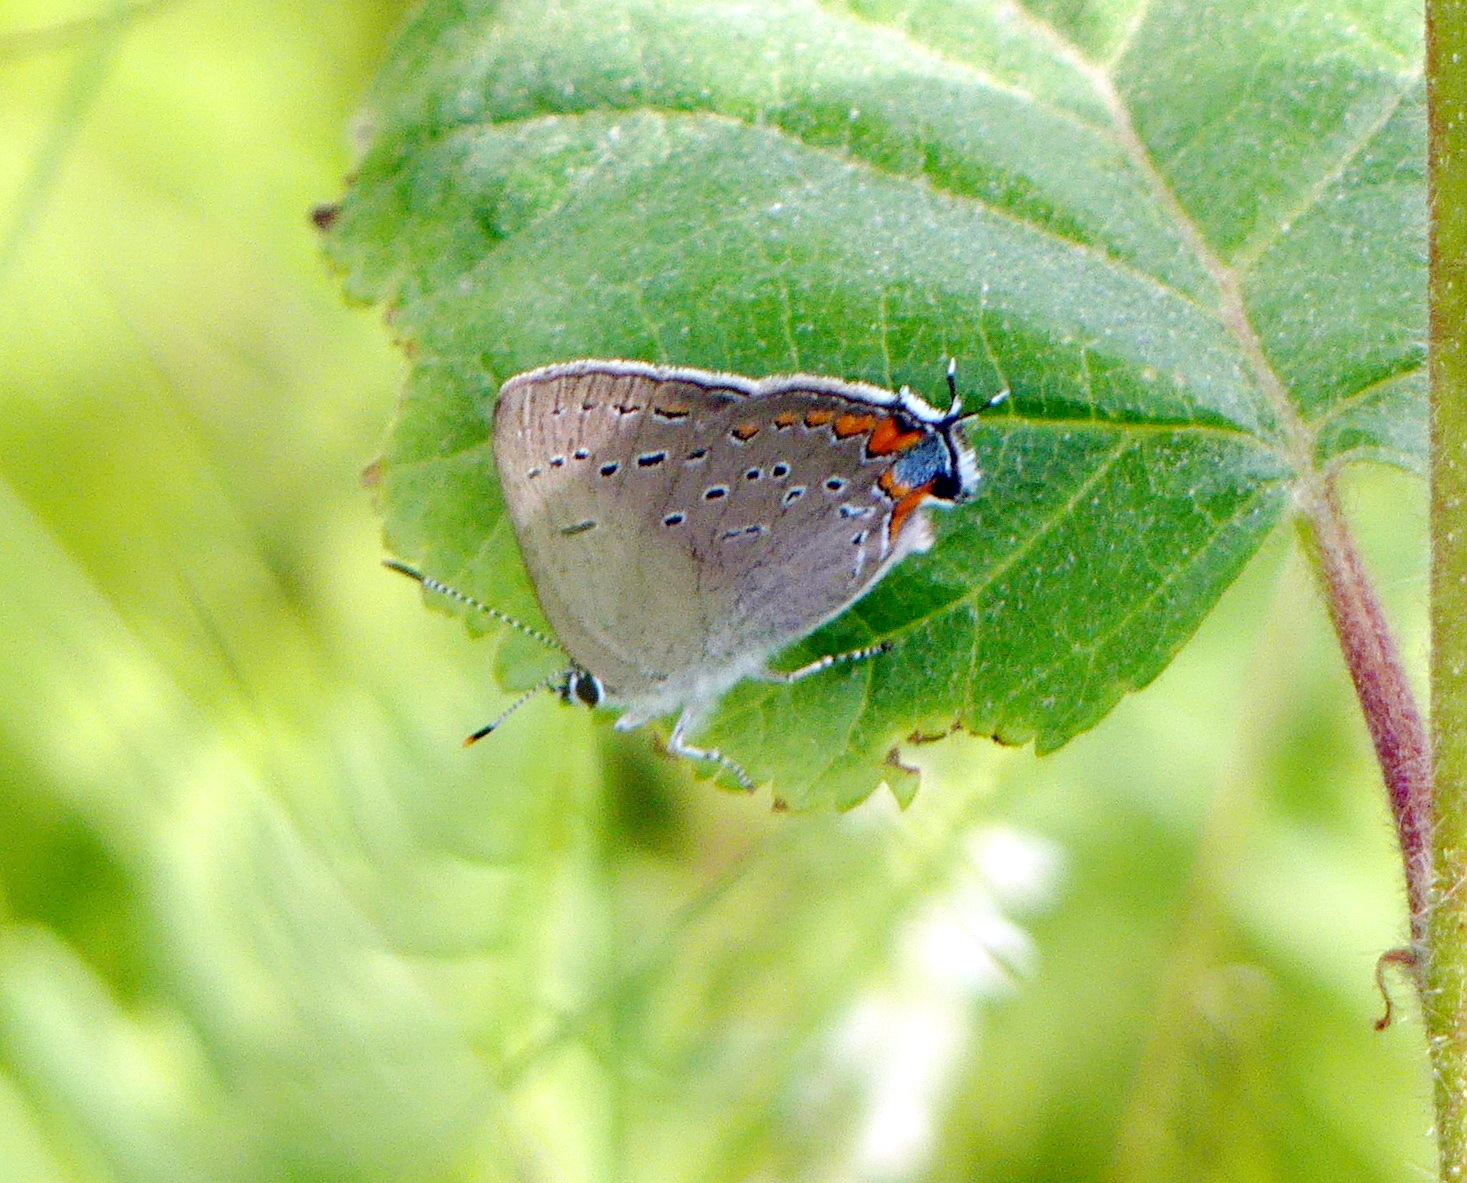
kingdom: Animalia
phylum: Arthropoda
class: Insecta
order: Lepidoptera
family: Lycaenidae
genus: Strymon
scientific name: Strymon acadica
